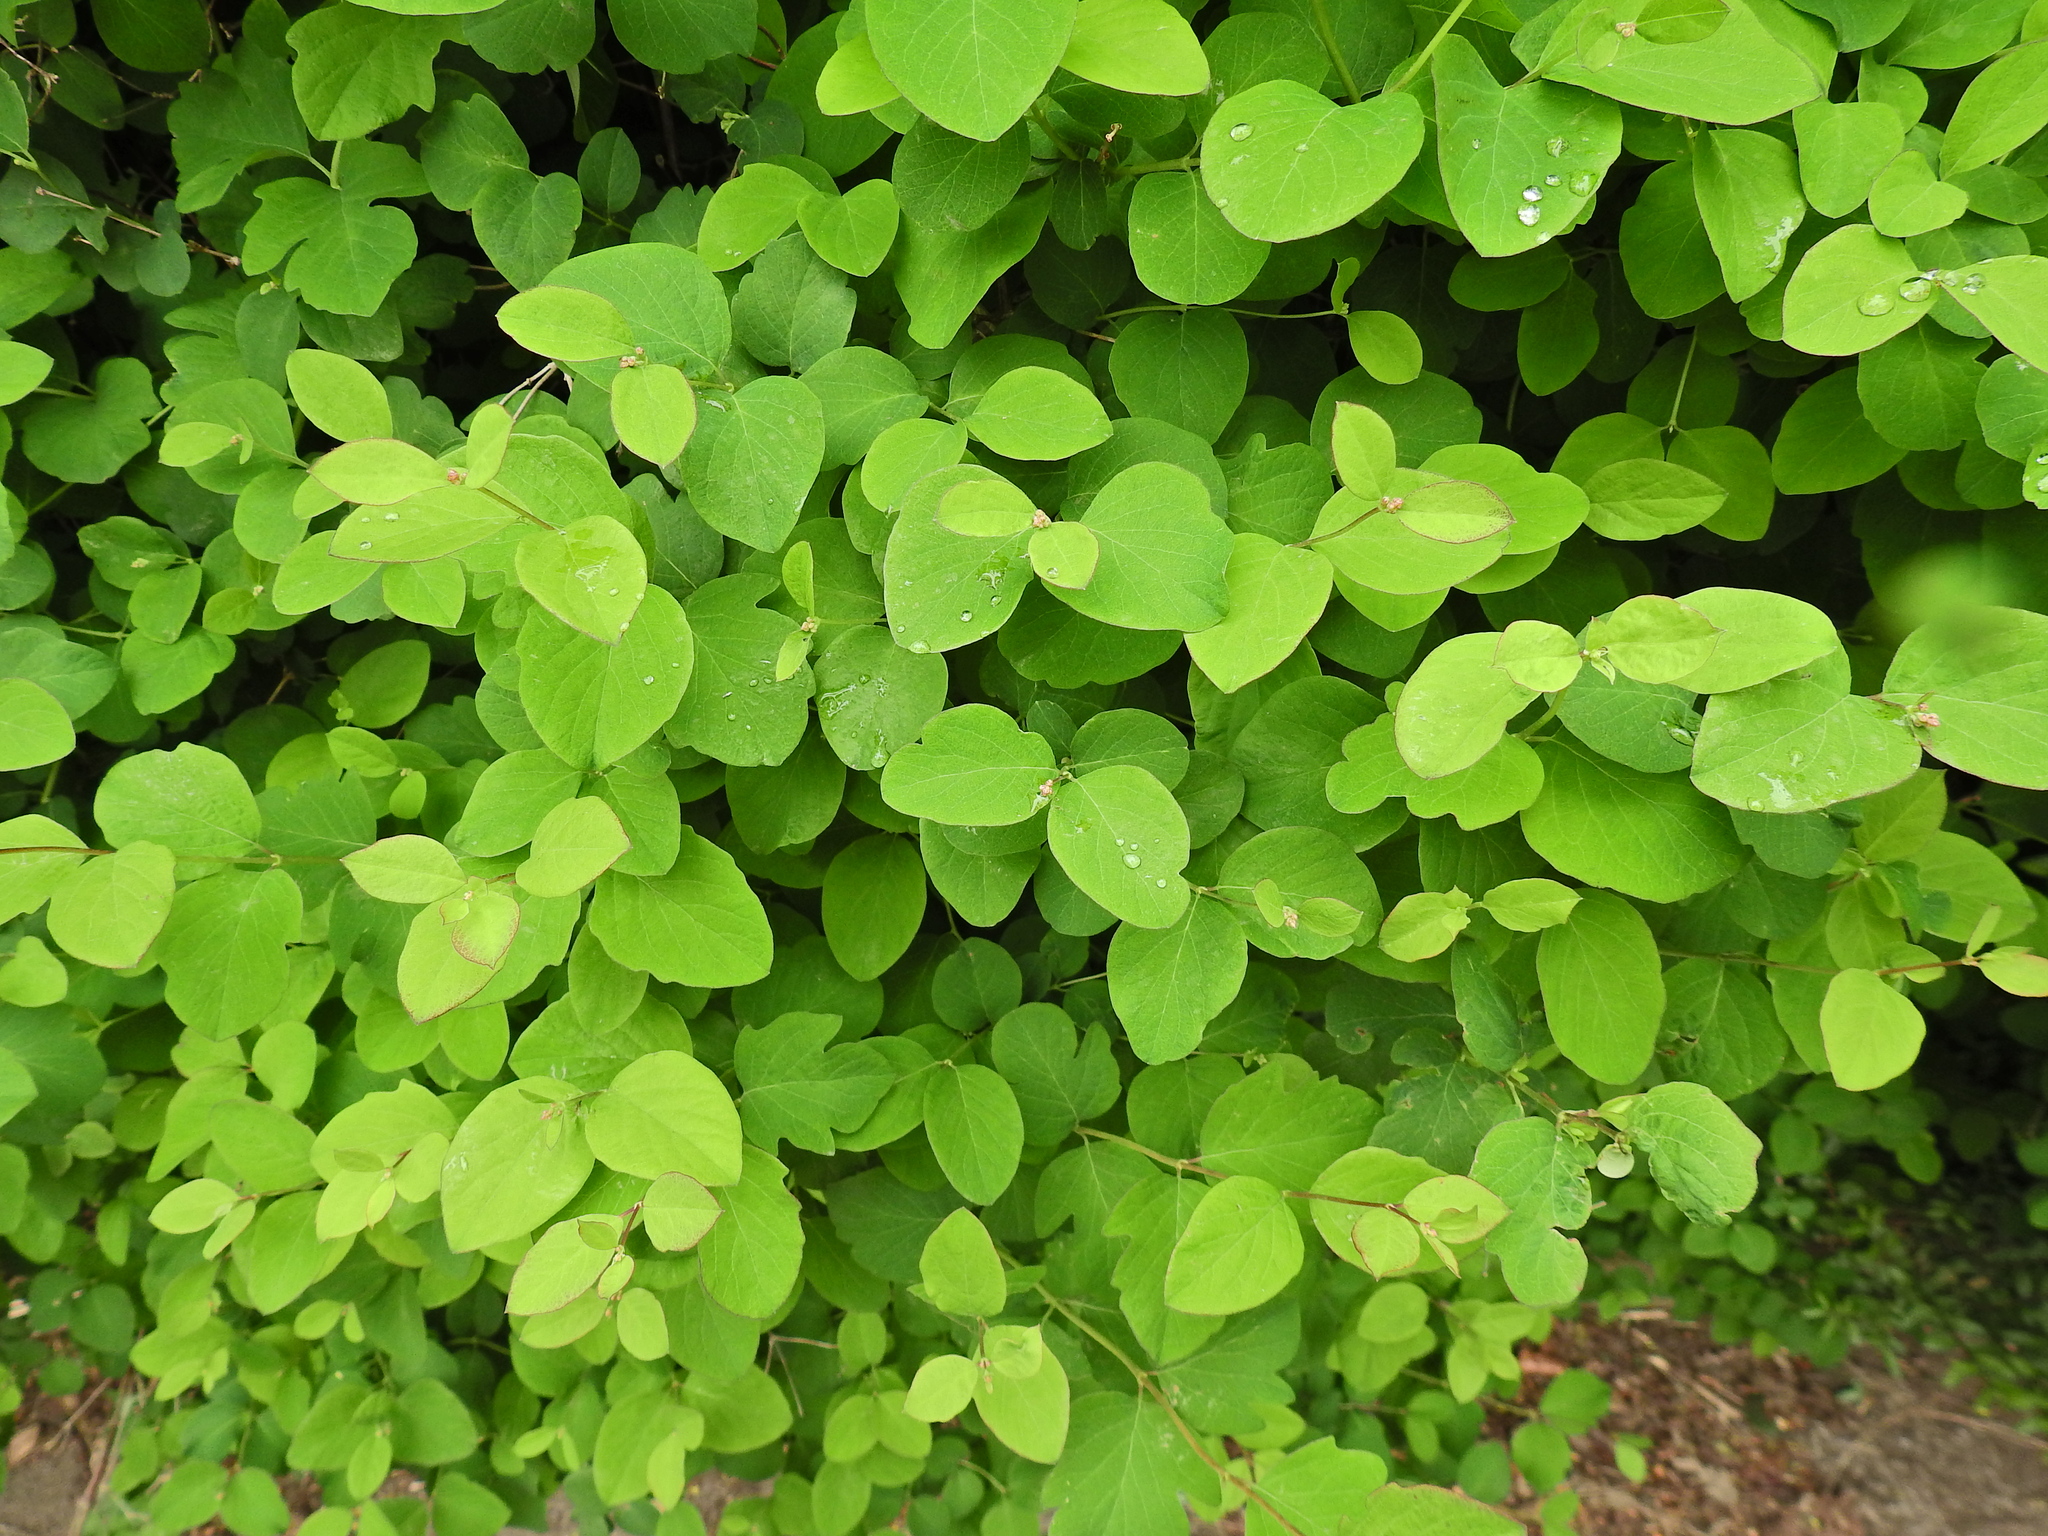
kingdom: Plantae
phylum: Tracheophyta
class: Magnoliopsida
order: Dipsacales
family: Caprifoliaceae
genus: Symphoricarpos
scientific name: Symphoricarpos albus
